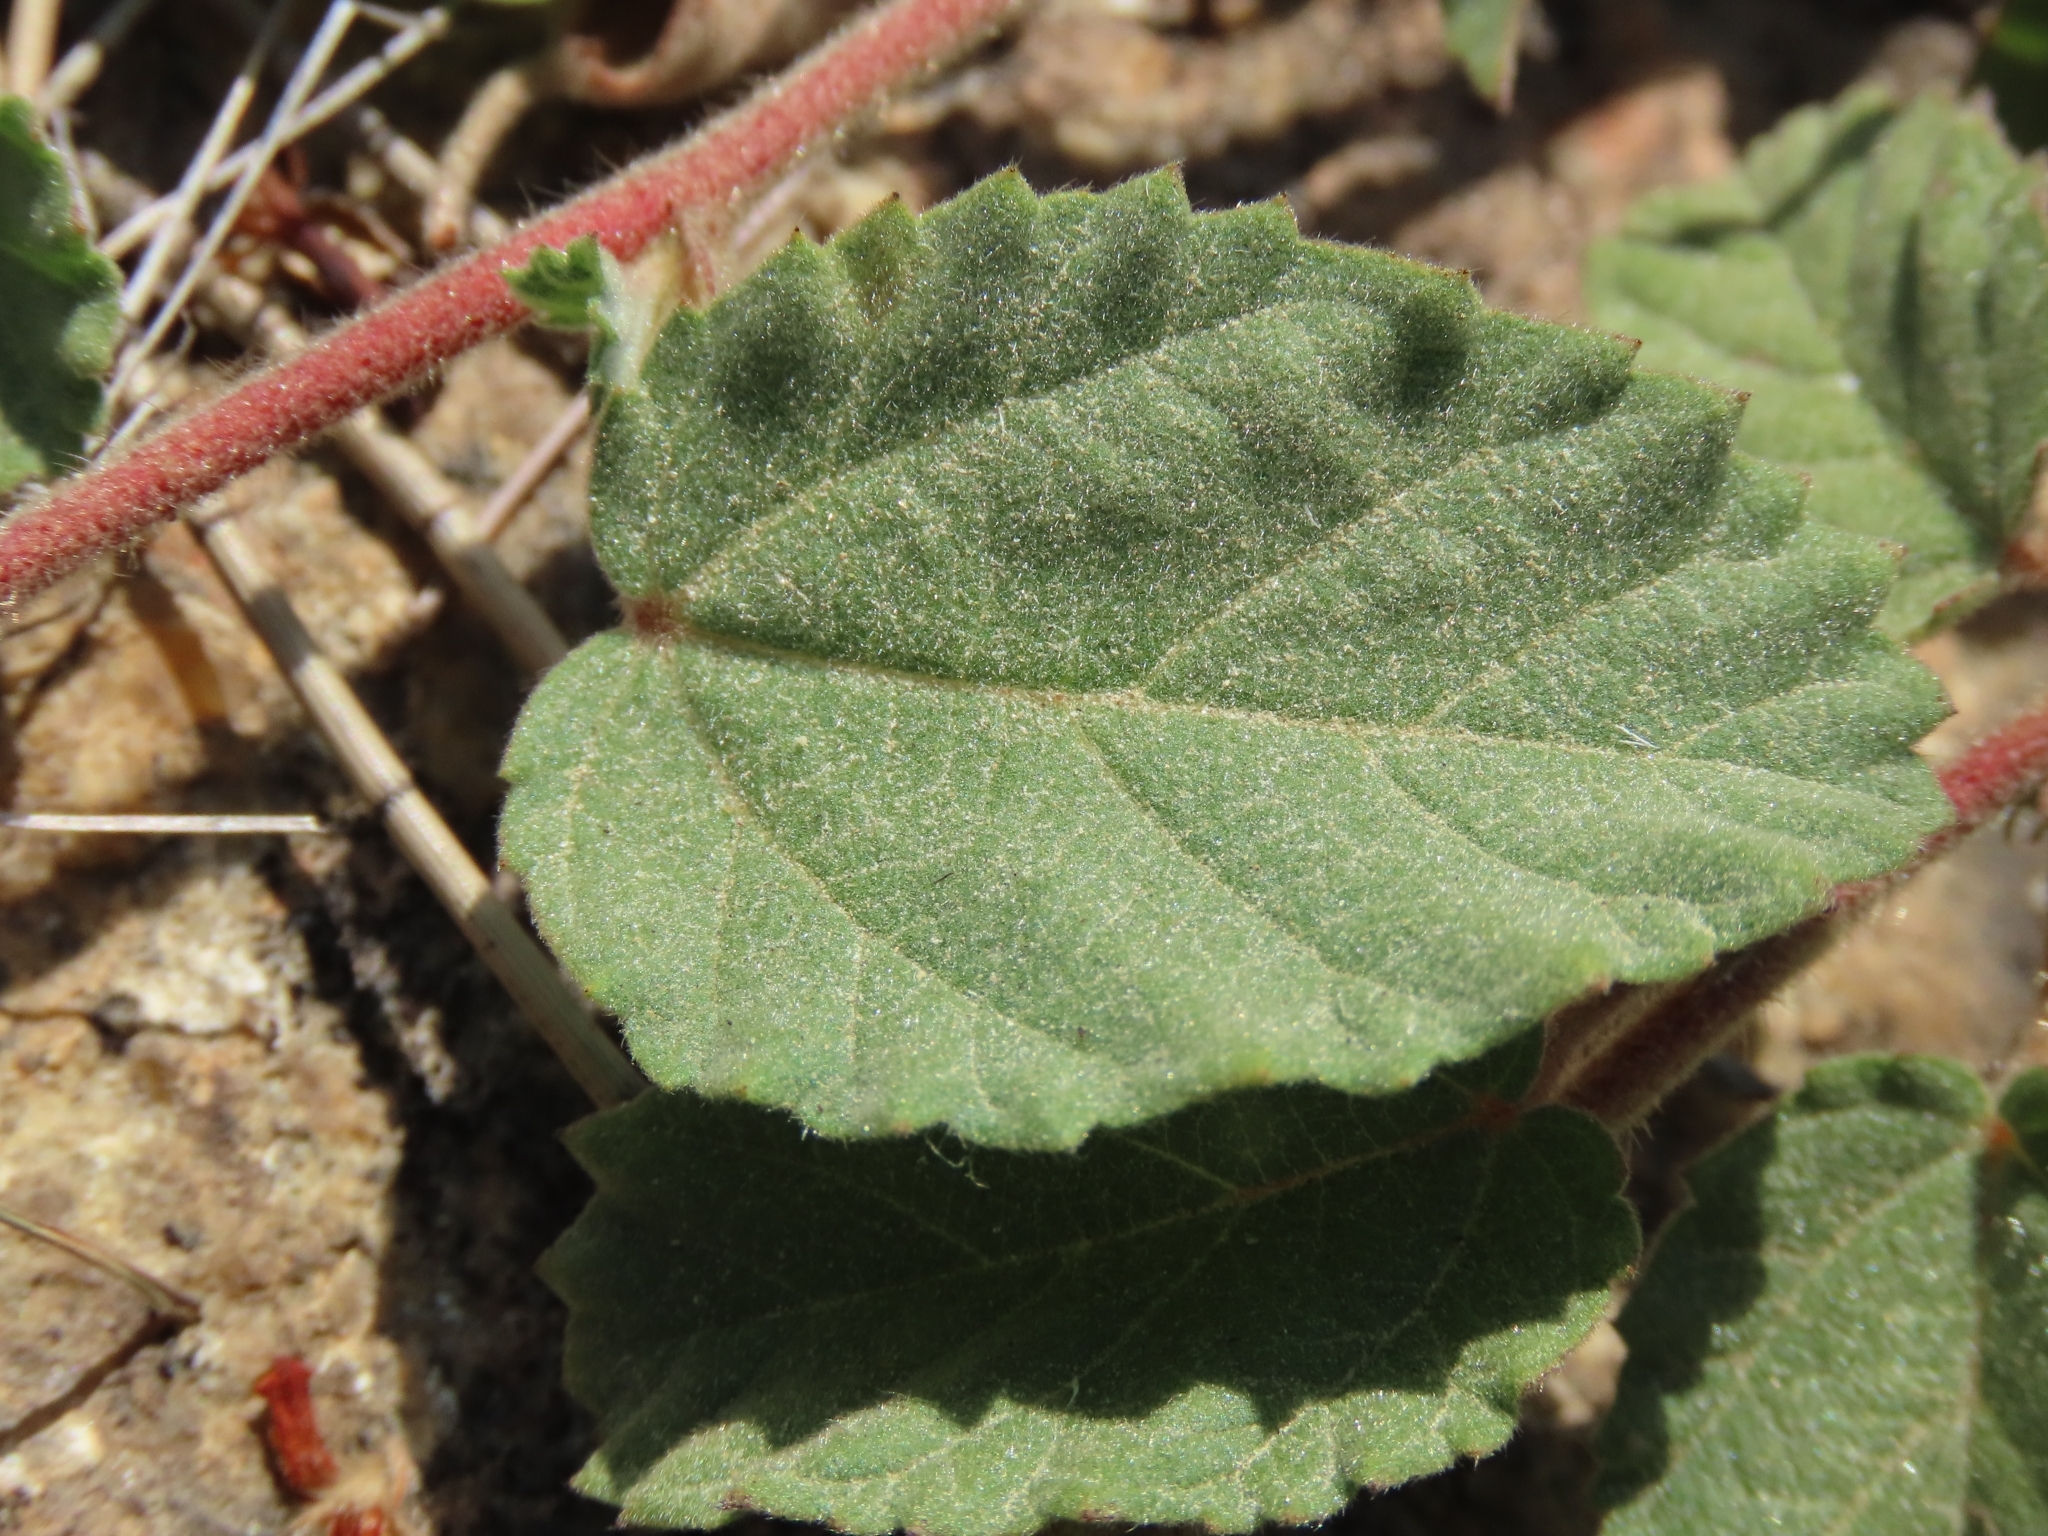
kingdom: Plantae
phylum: Tracheophyta
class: Magnoliopsida
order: Malvales
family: Malvaceae
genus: Waltheria
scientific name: Waltheria indica
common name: Leather-coat
